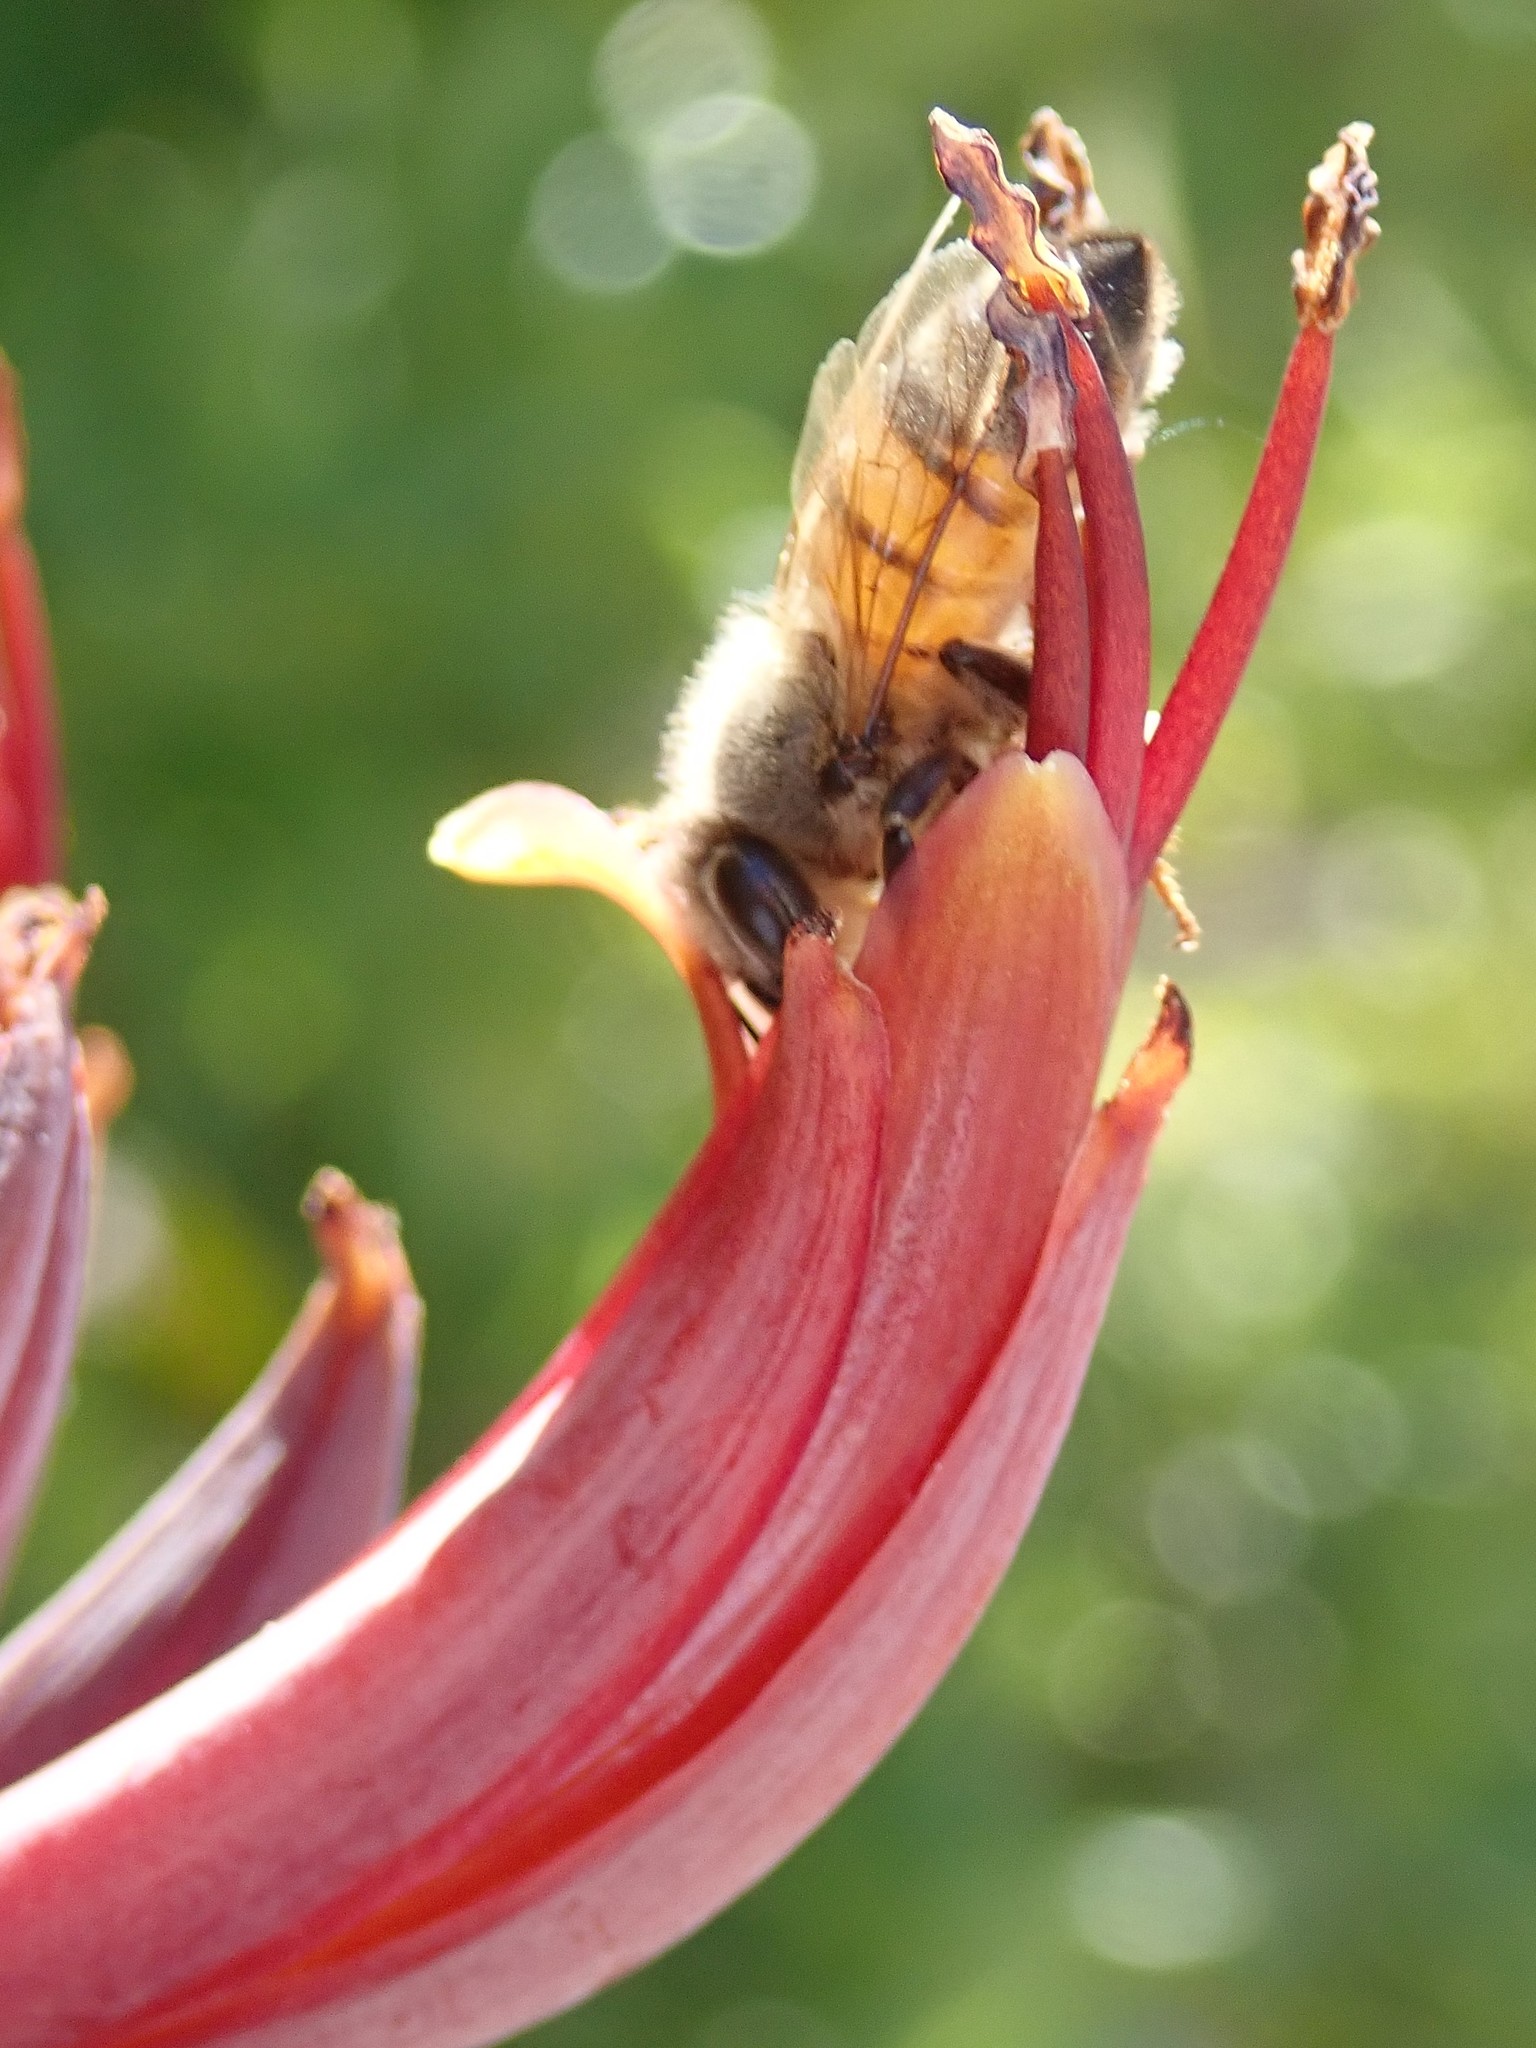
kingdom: Animalia
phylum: Arthropoda
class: Insecta
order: Hymenoptera
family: Apidae
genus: Apis
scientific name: Apis mellifera
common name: Honey bee
